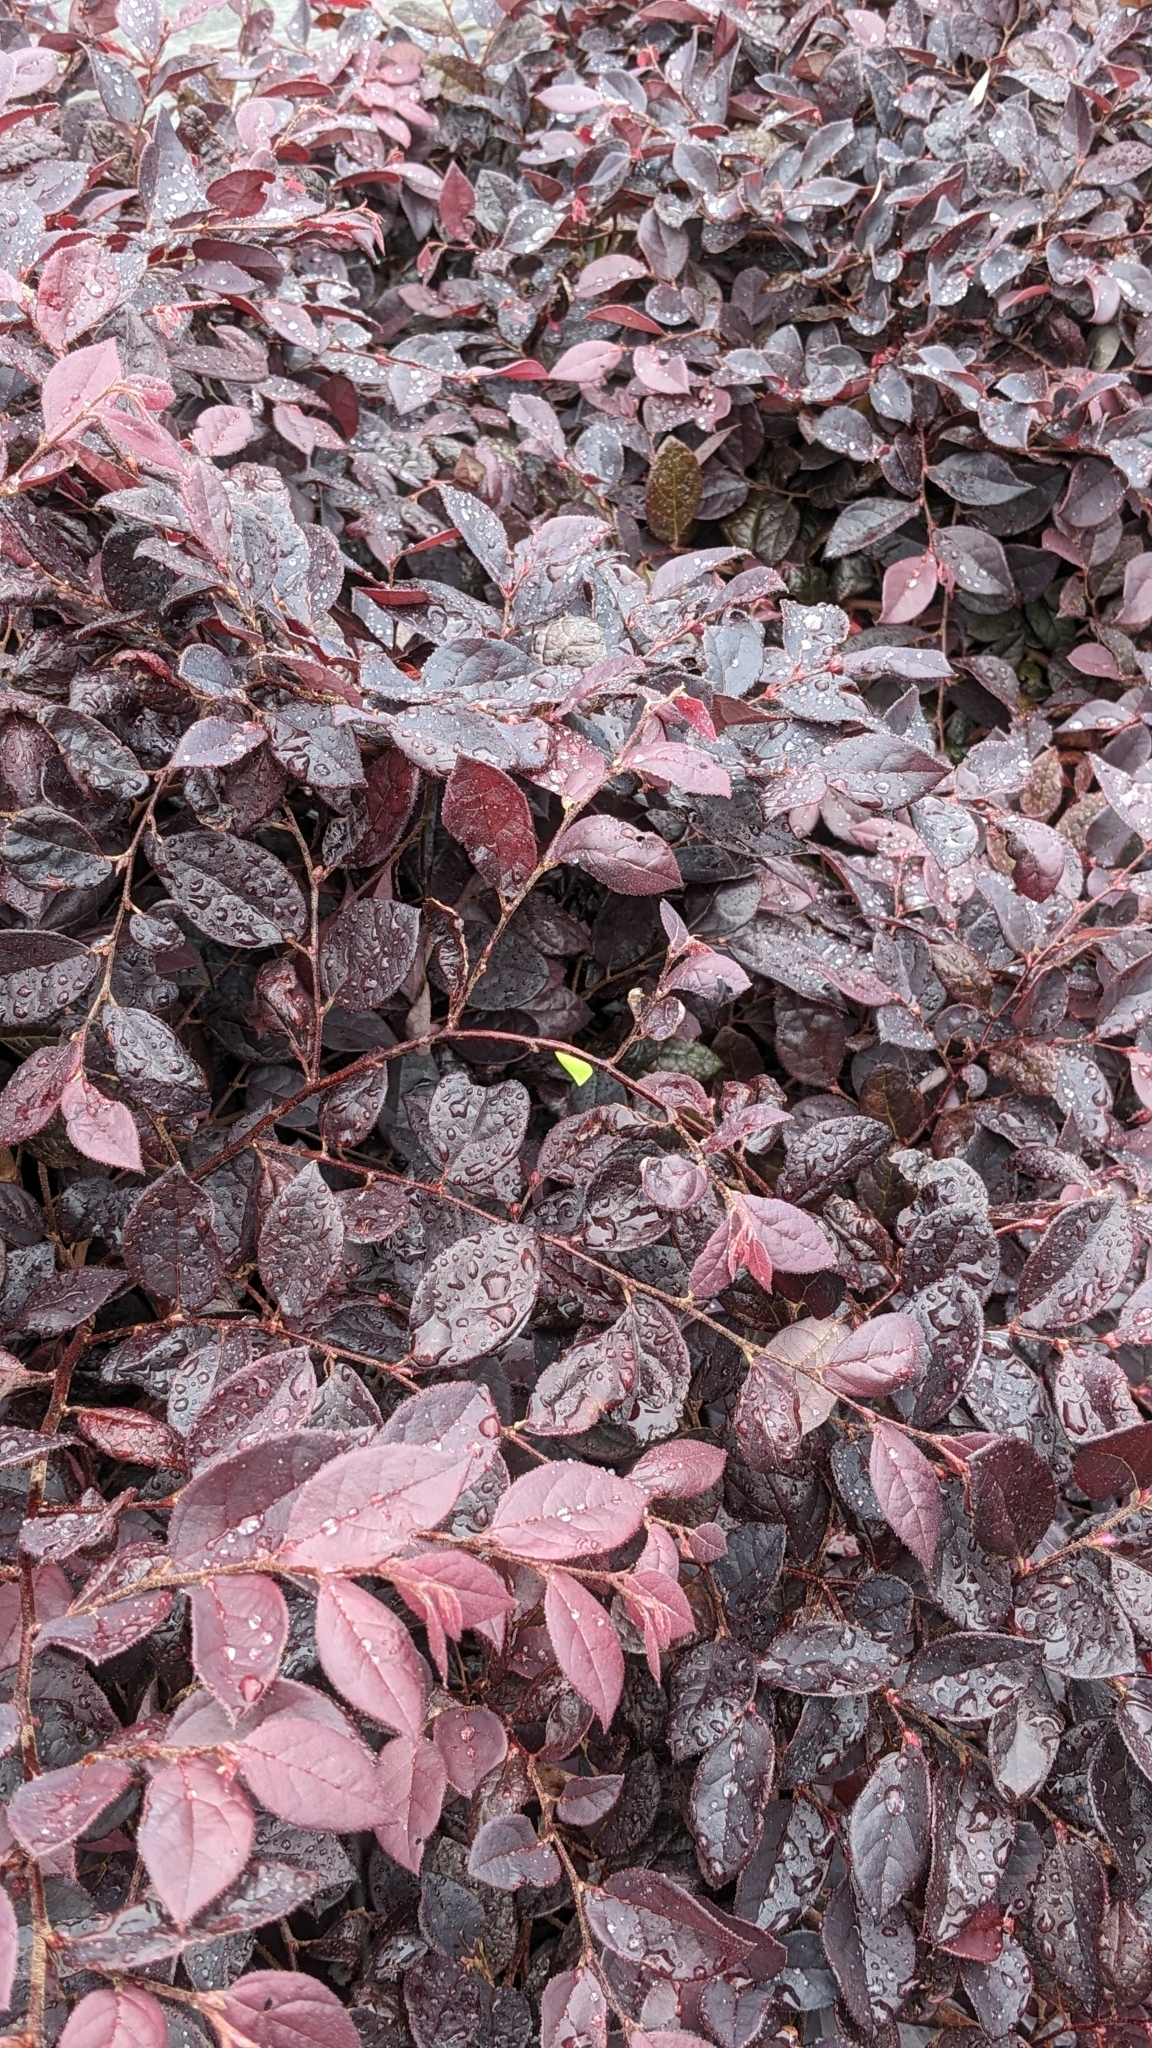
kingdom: Animalia
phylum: Arthropoda
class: Insecta
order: Hemiptera
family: Flatidae
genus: Siphanta
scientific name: Siphanta acuta
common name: Torpedo bug
